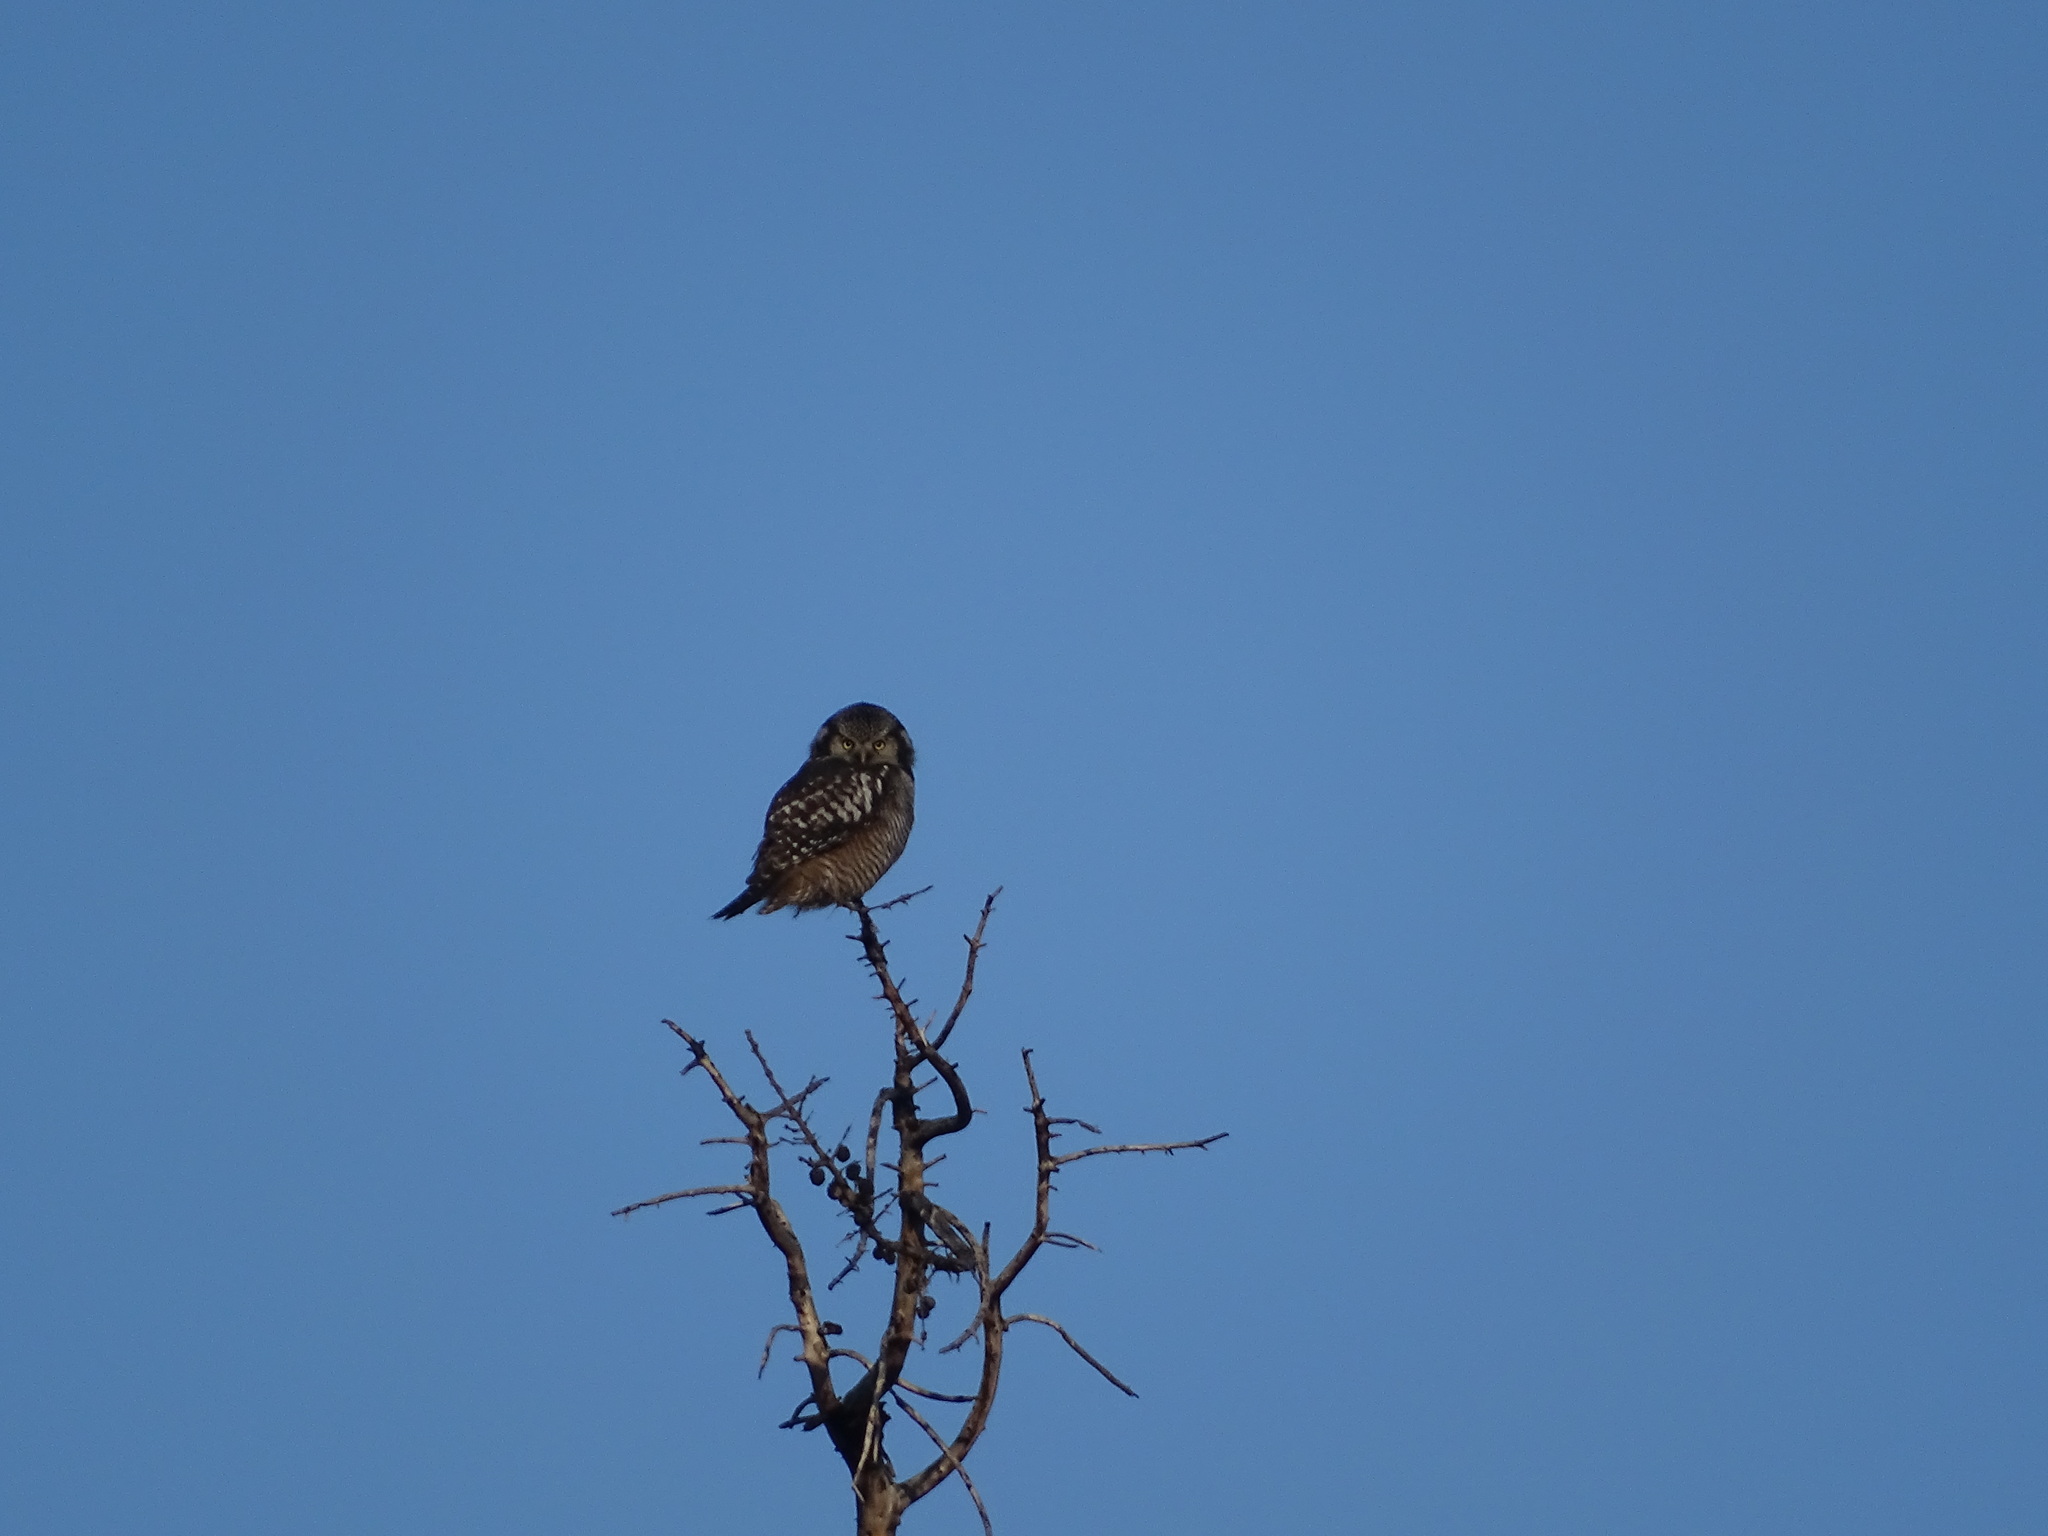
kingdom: Animalia
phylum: Chordata
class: Aves
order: Strigiformes
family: Strigidae
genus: Surnia
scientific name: Surnia ulula
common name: Northern hawk-owl
